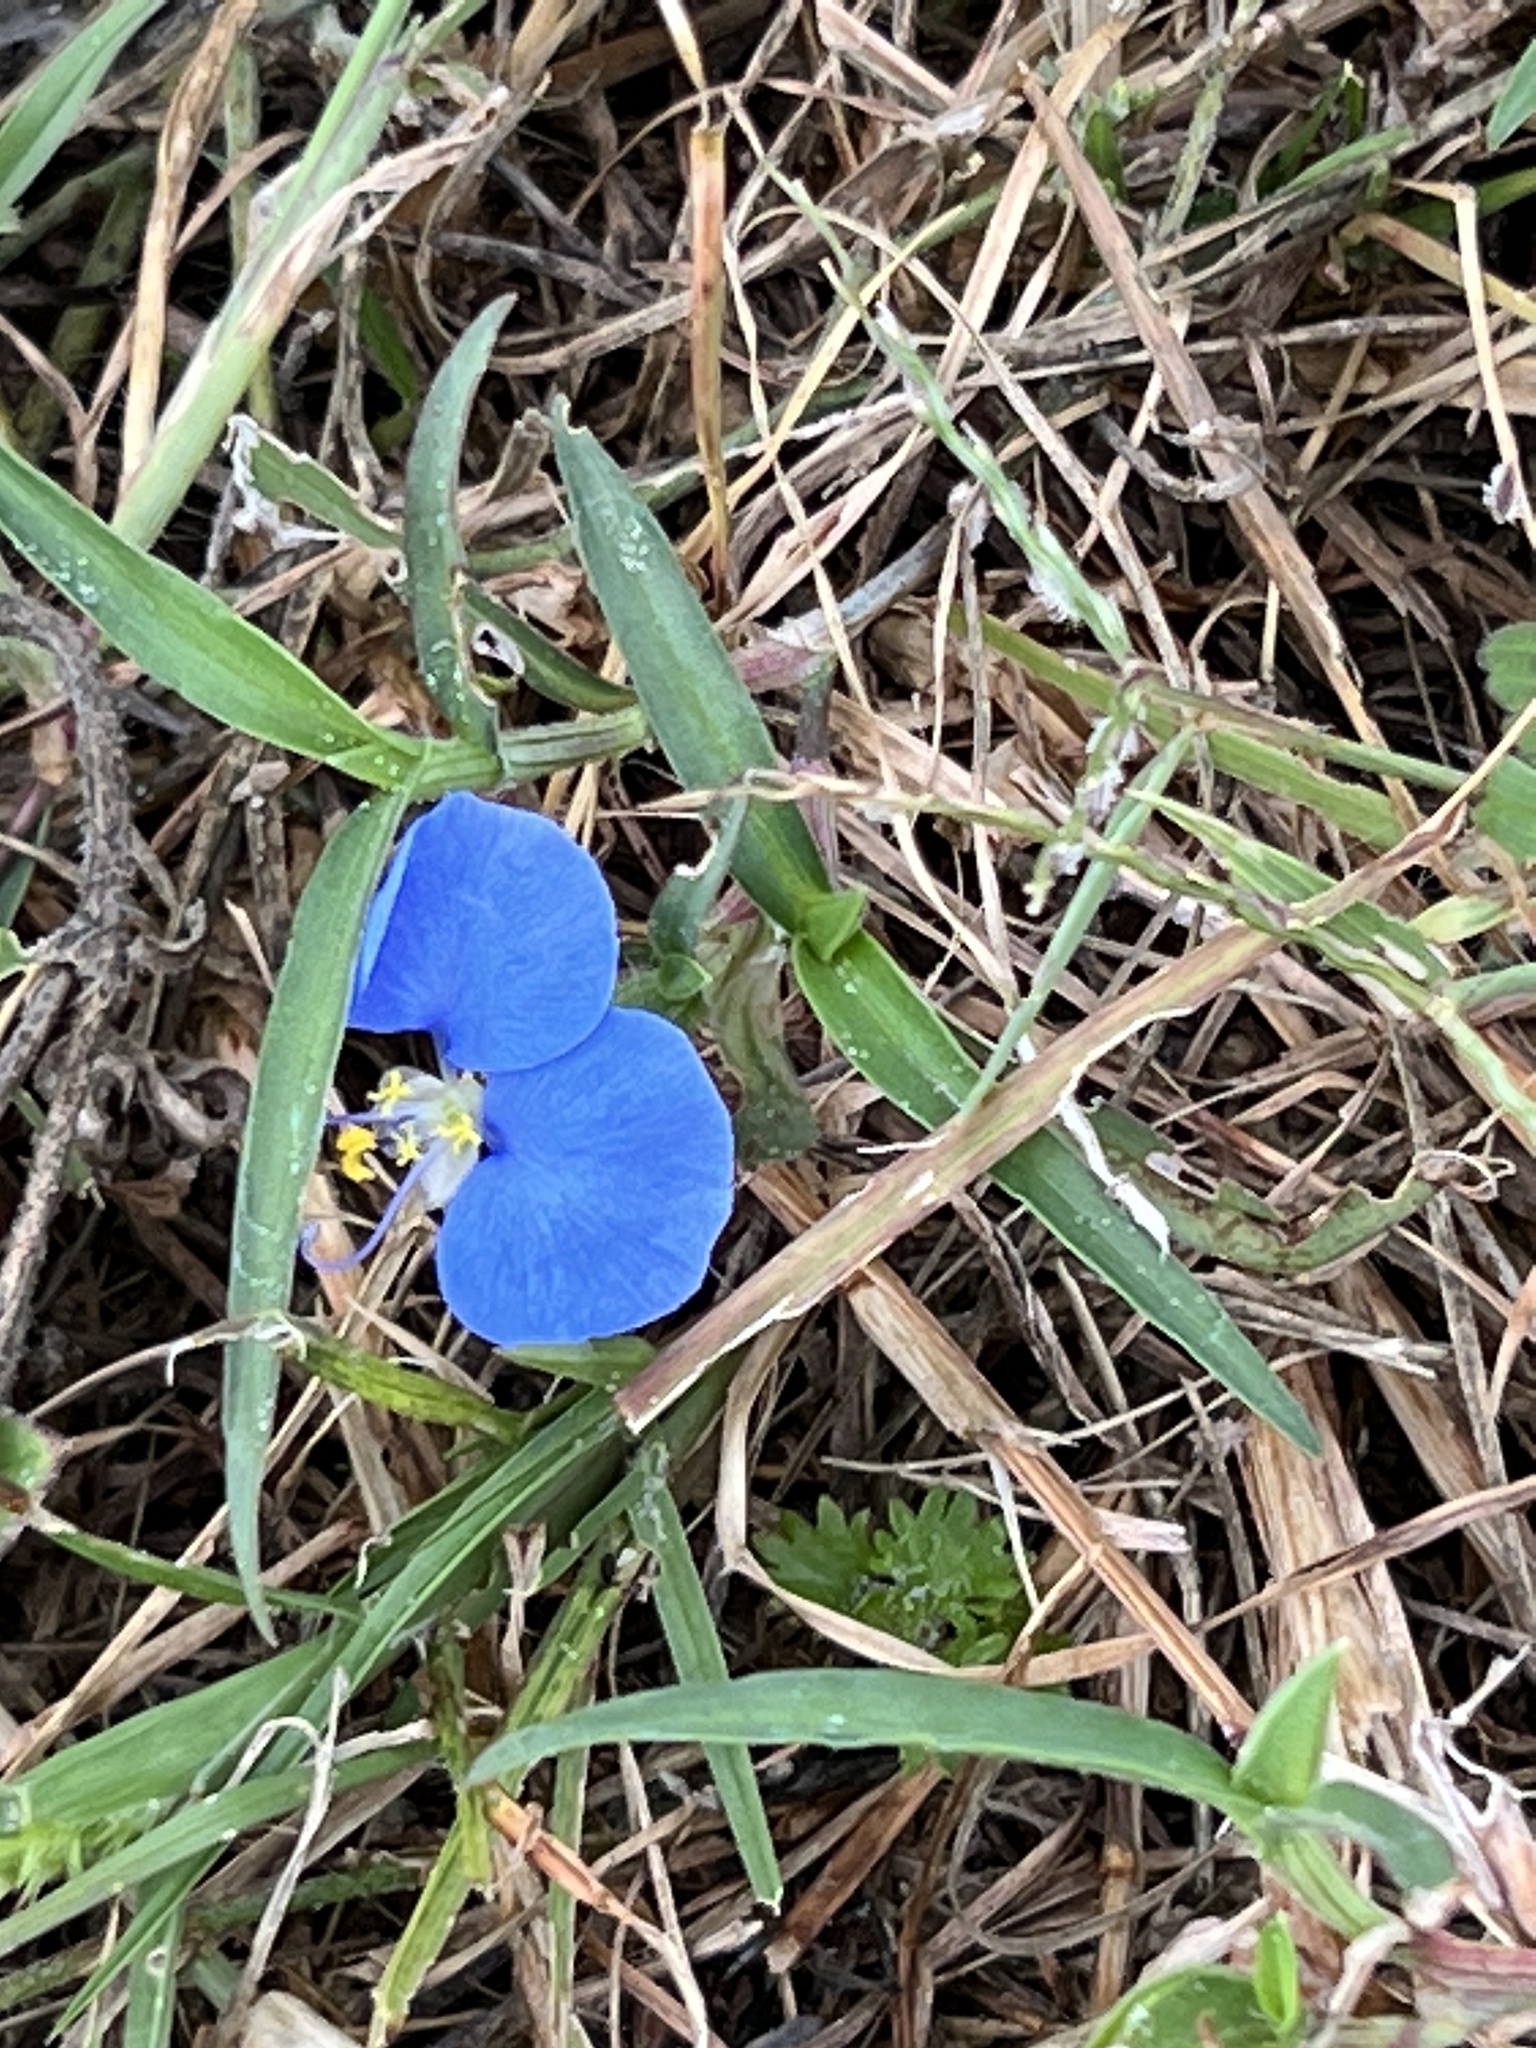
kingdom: Plantae
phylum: Tracheophyta
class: Liliopsida
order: Commelinales
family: Commelinaceae
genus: Commelina
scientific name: Commelina erecta
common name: Blousel blommetjie
